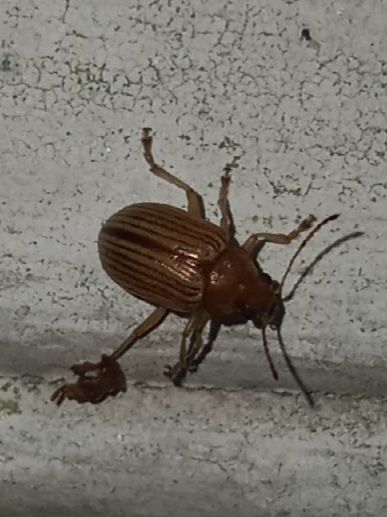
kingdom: Animalia
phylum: Arthropoda
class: Insecta
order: Coleoptera
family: Chrysomelidae
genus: Colaspis
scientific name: Colaspis brunnea
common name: Grape colaspis
